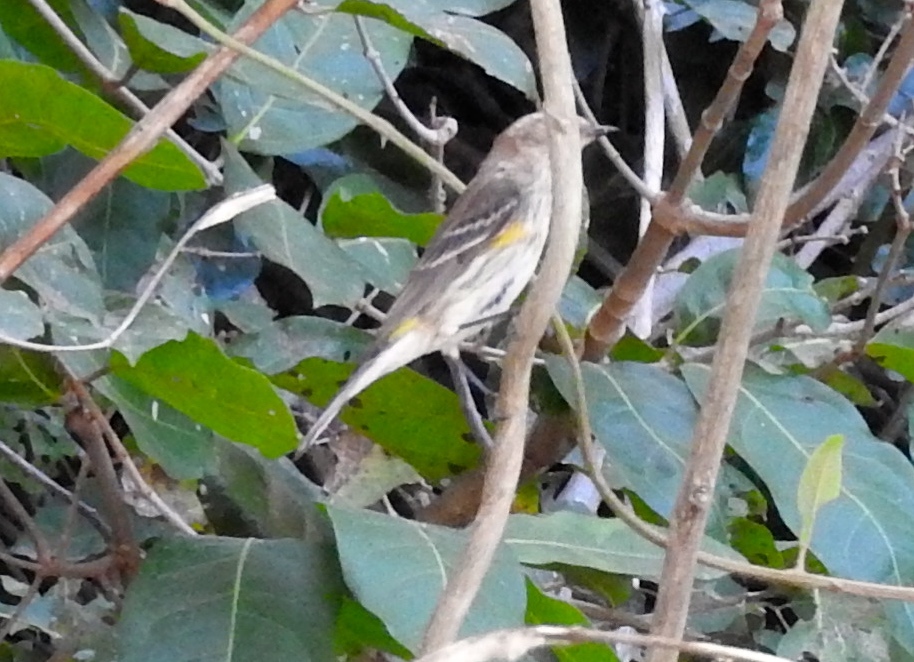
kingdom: Animalia
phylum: Chordata
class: Aves
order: Passeriformes
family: Parulidae
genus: Setophaga
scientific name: Setophaga coronata
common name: Myrtle warbler
